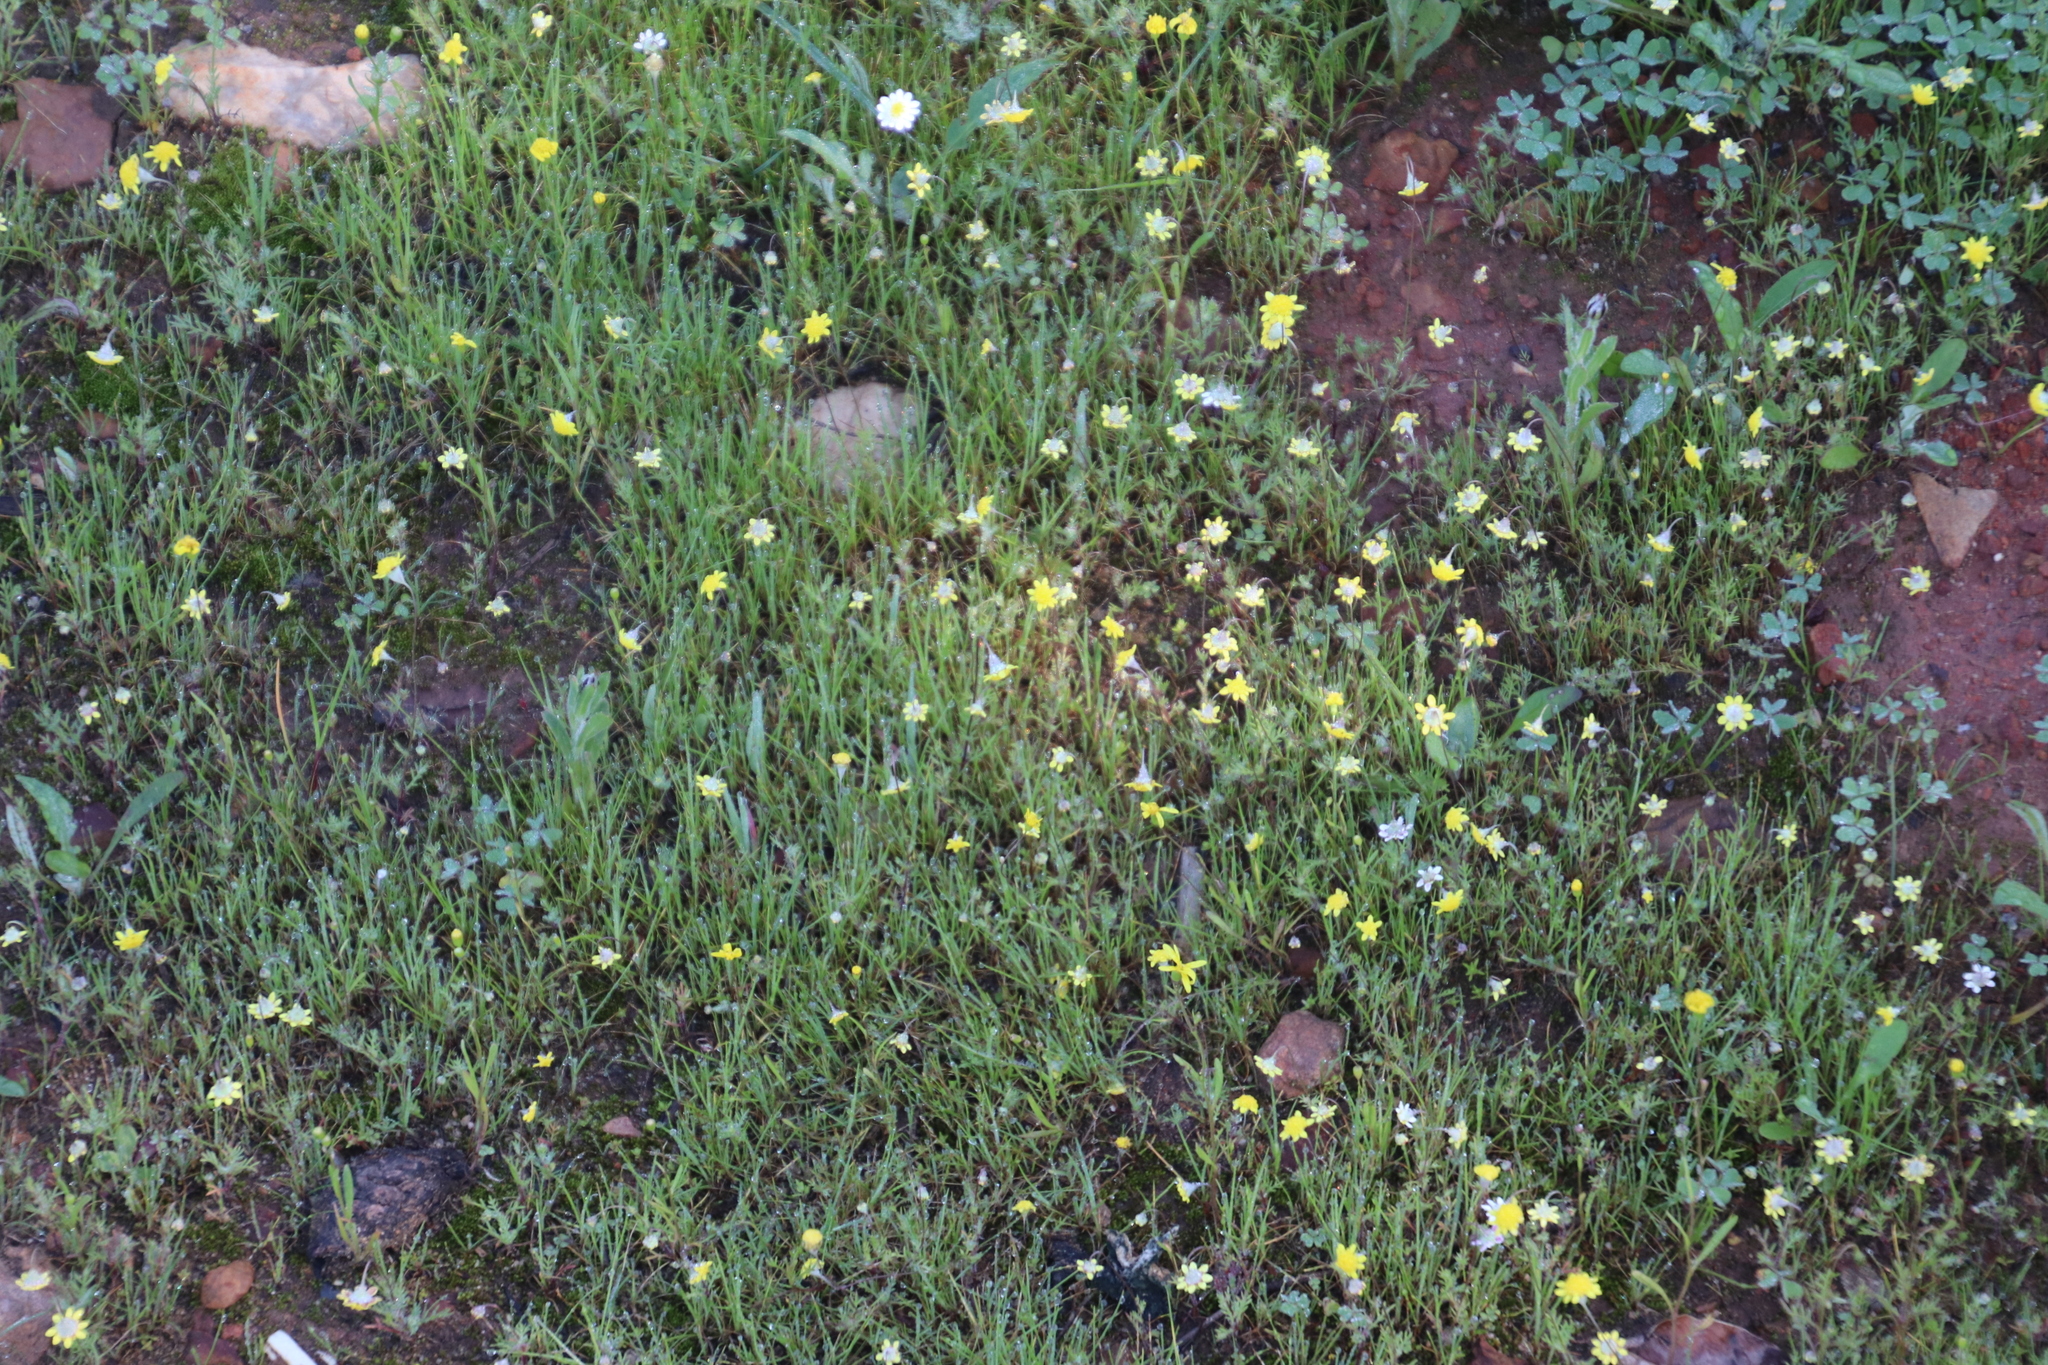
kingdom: Plantae
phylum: Tracheophyta
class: Magnoliopsida
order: Asterales
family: Asteraceae
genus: Cotula
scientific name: Cotula turbinata
